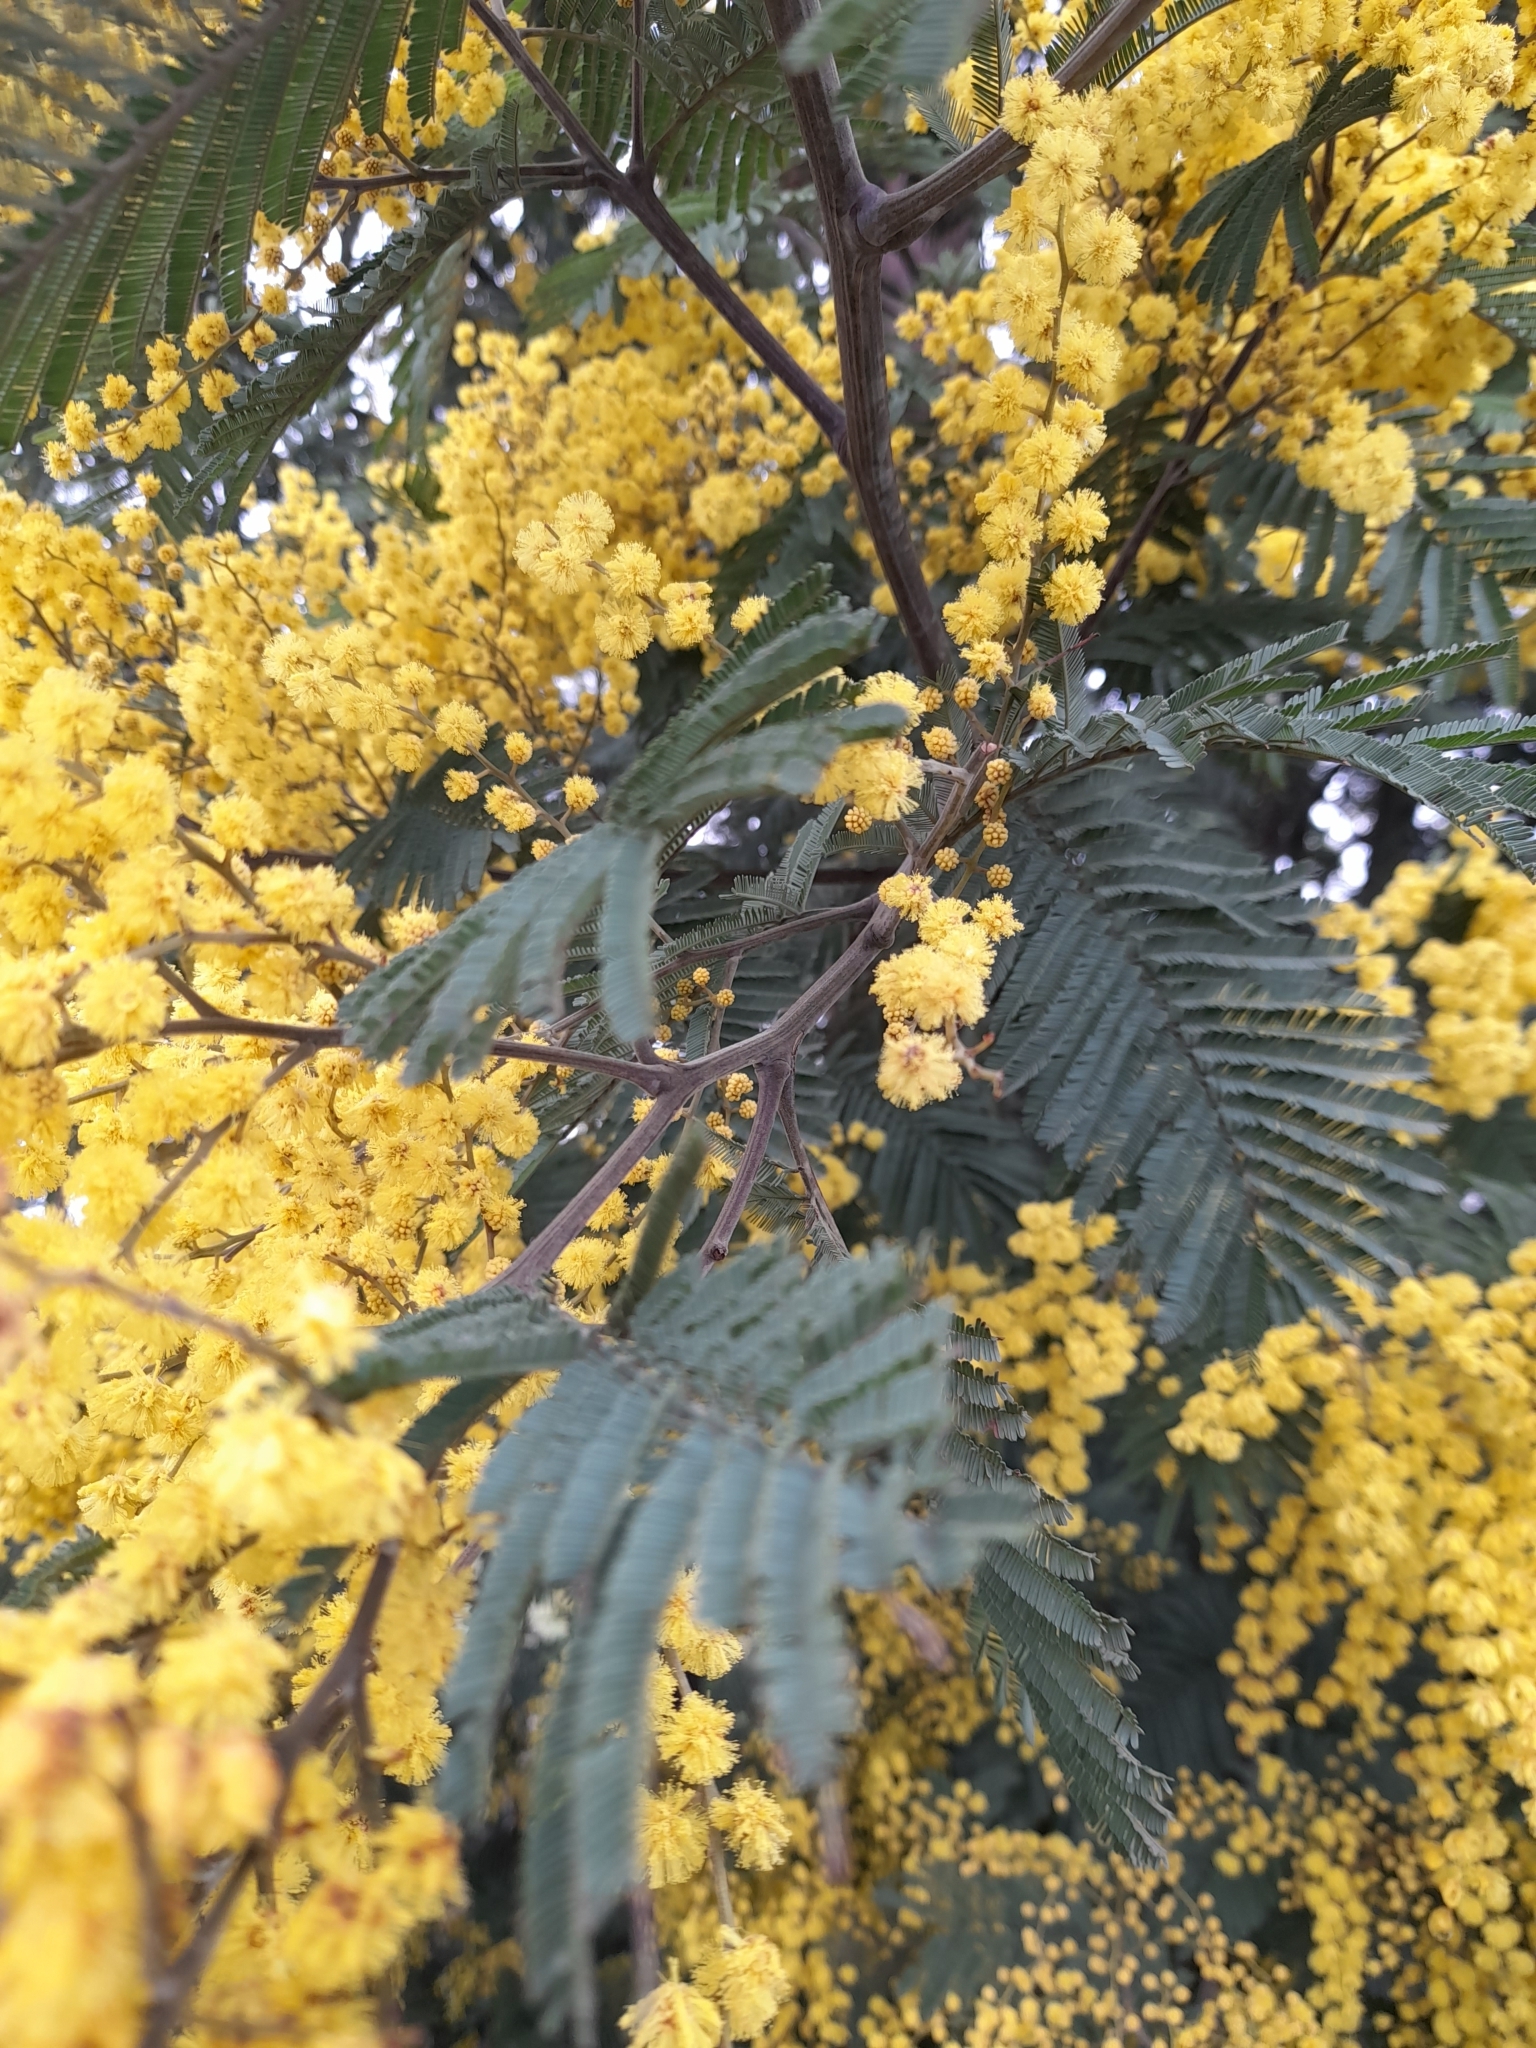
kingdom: Plantae
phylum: Tracheophyta
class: Magnoliopsida
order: Fabales
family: Fabaceae
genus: Acacia
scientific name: Acacia dealbata
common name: Silver wattle
